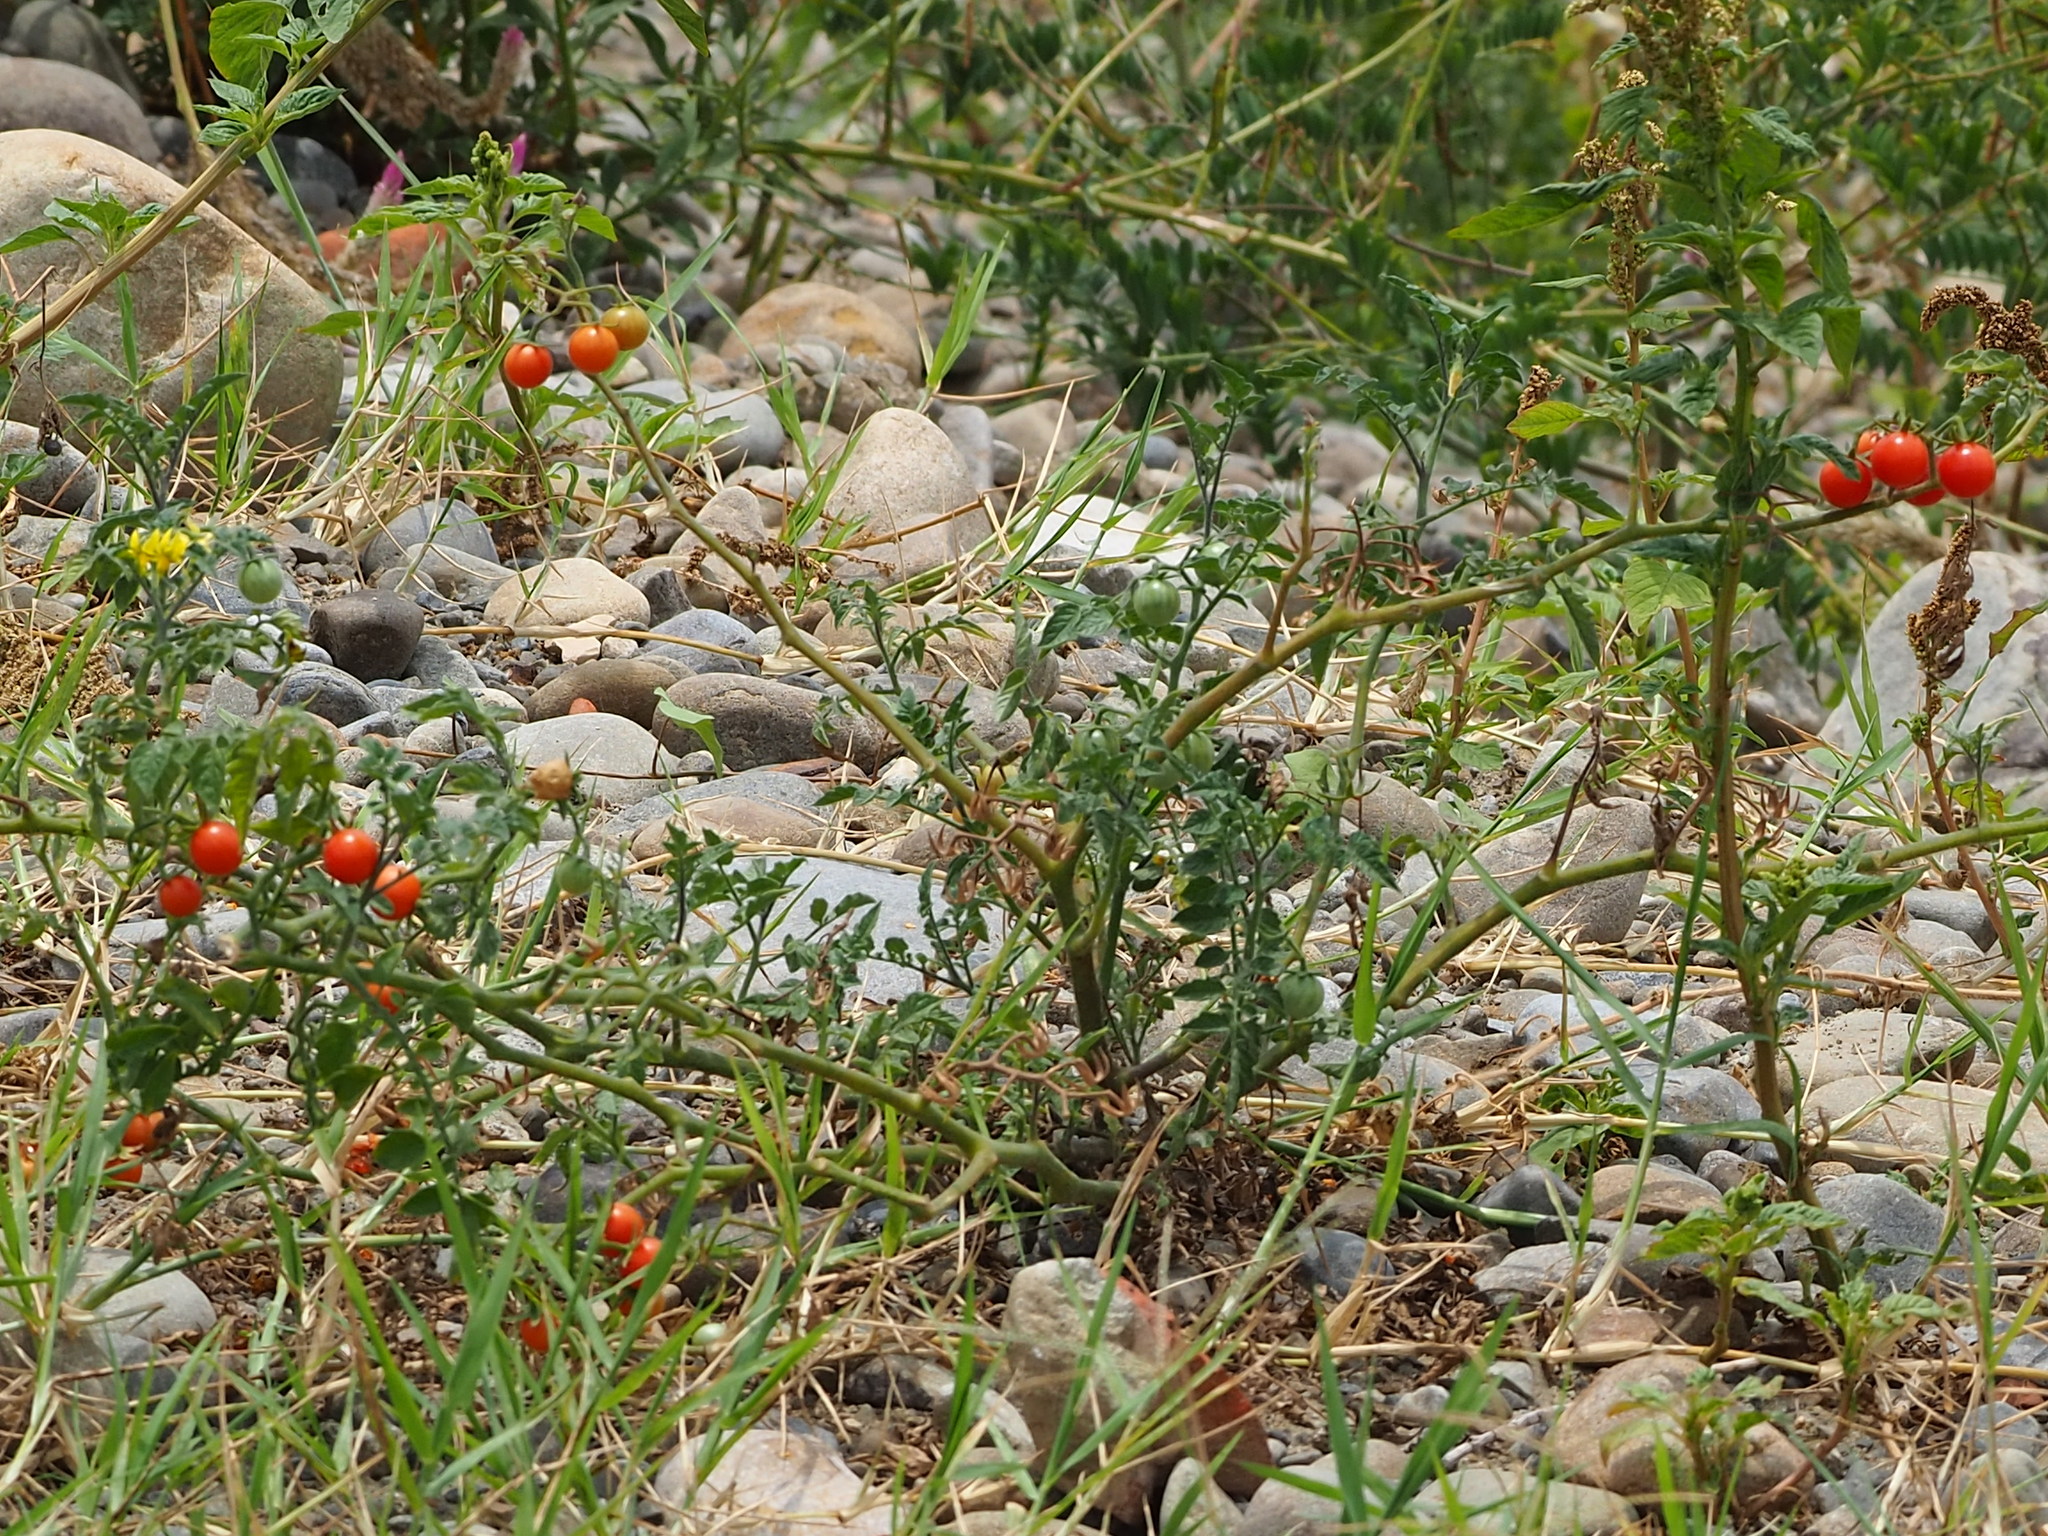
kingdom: Plantae
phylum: Tracheophyta
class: Magnoliopsida
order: Solanales
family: Solanaceae
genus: Solanum
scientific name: Solanum lycopersicum
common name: Garden tomato
